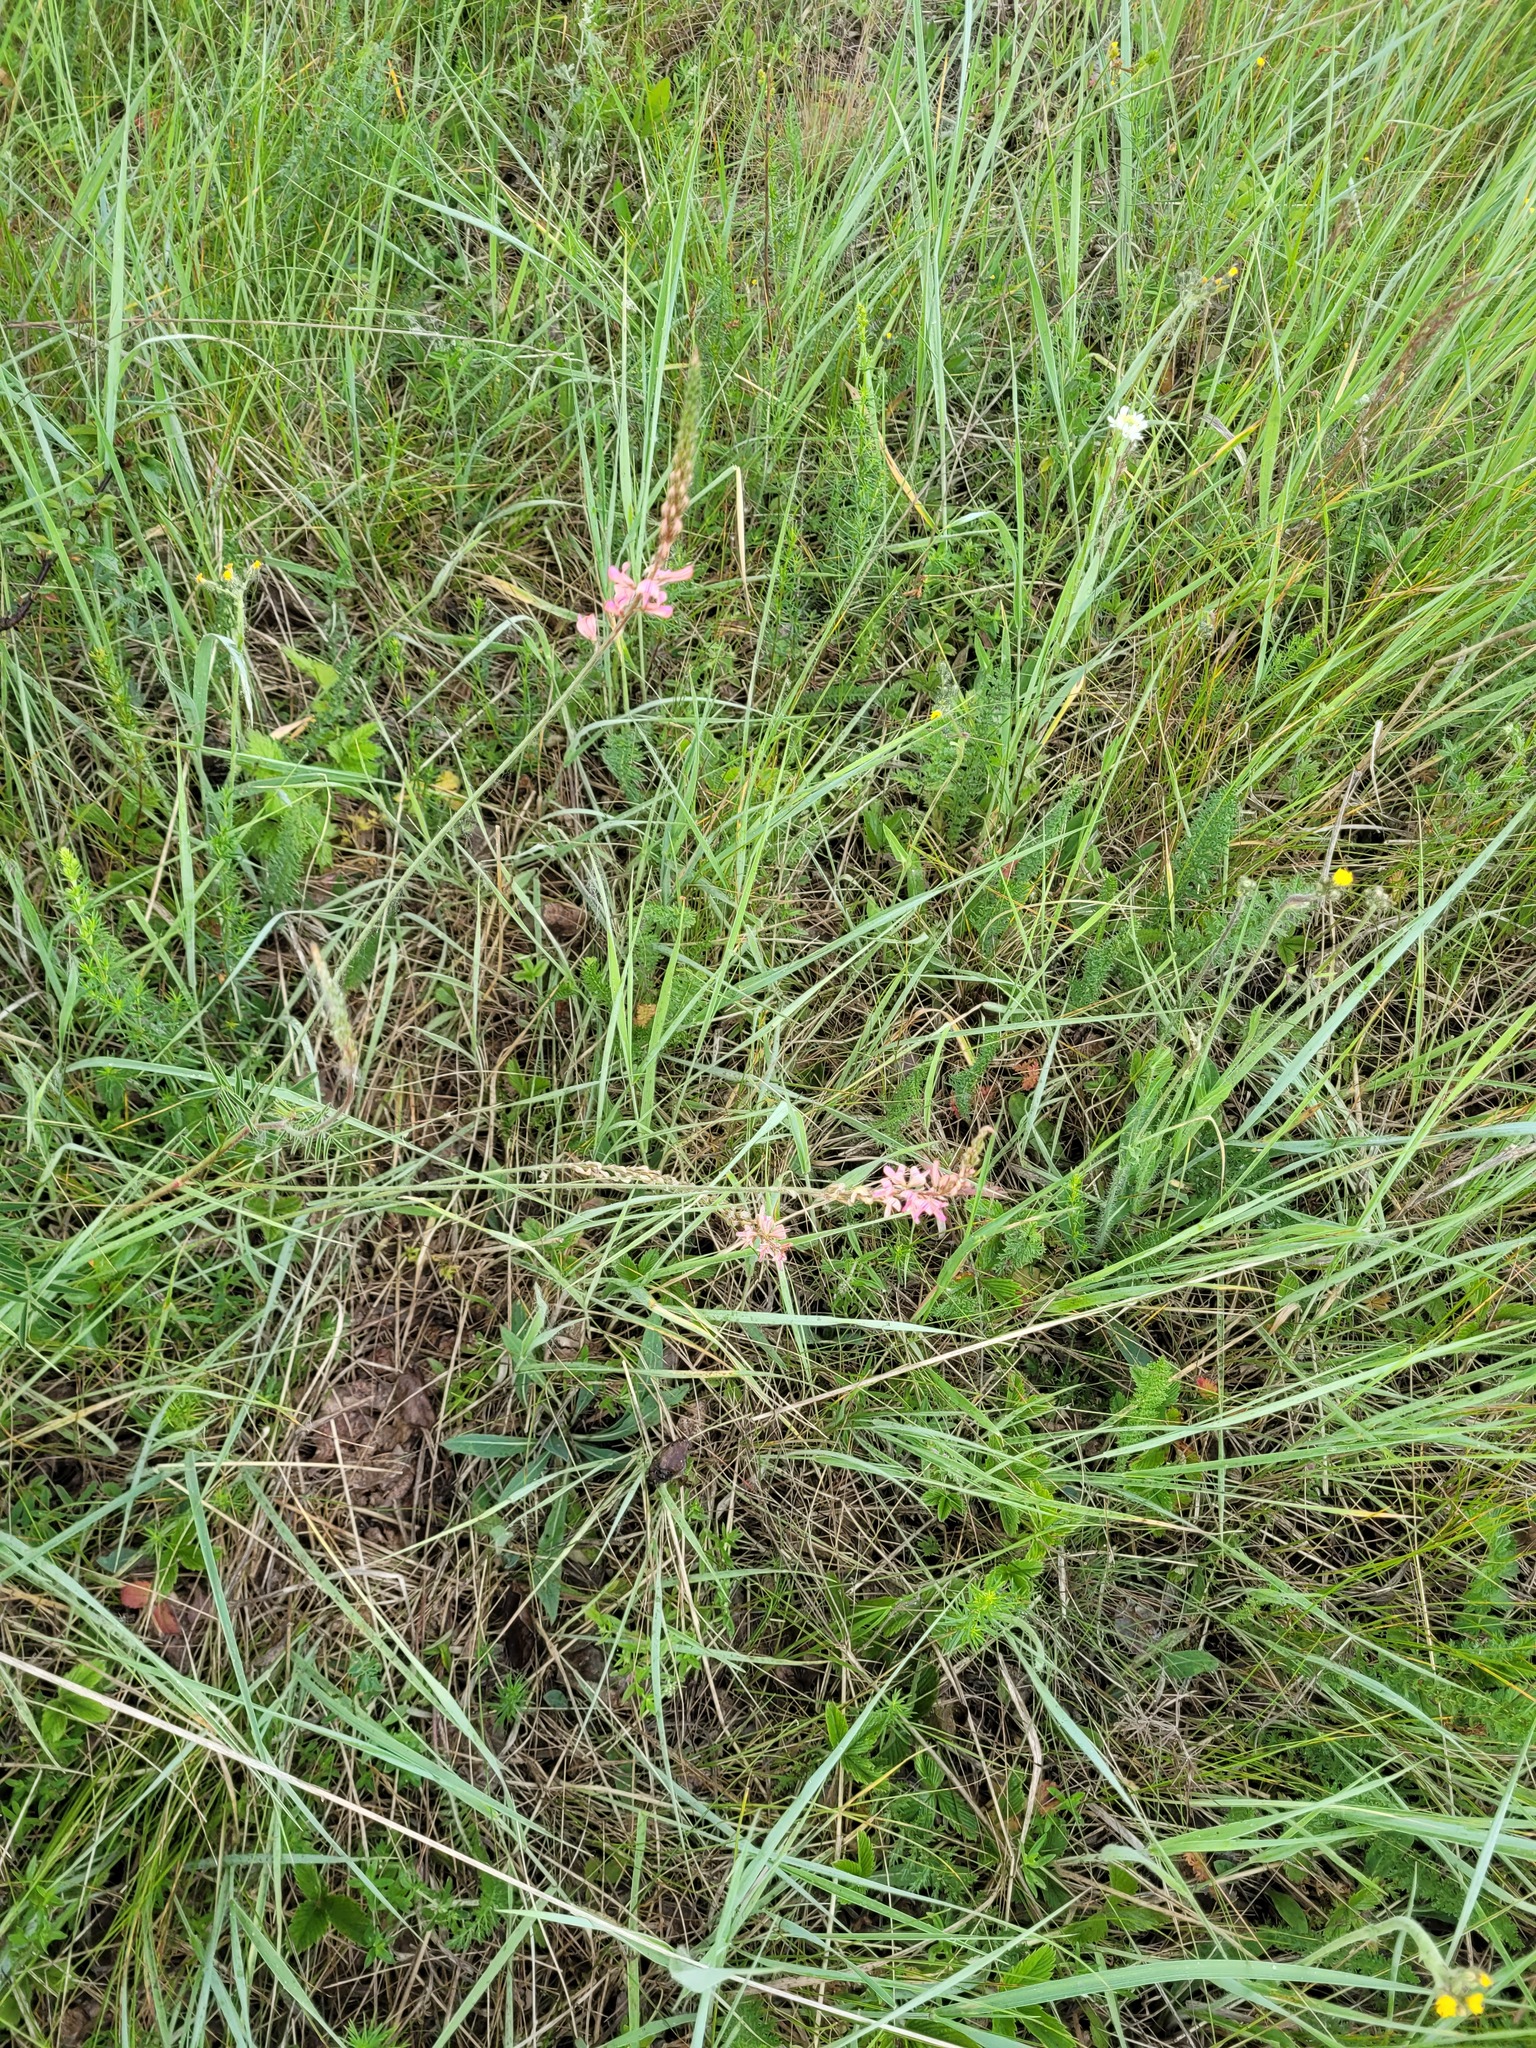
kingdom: Plantae
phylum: Tracheophyta
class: Magnoliopsida
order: Fabales
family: Fabaceae
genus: Onobrychis
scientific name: Onobrychis viciifolia
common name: Sainfoin
